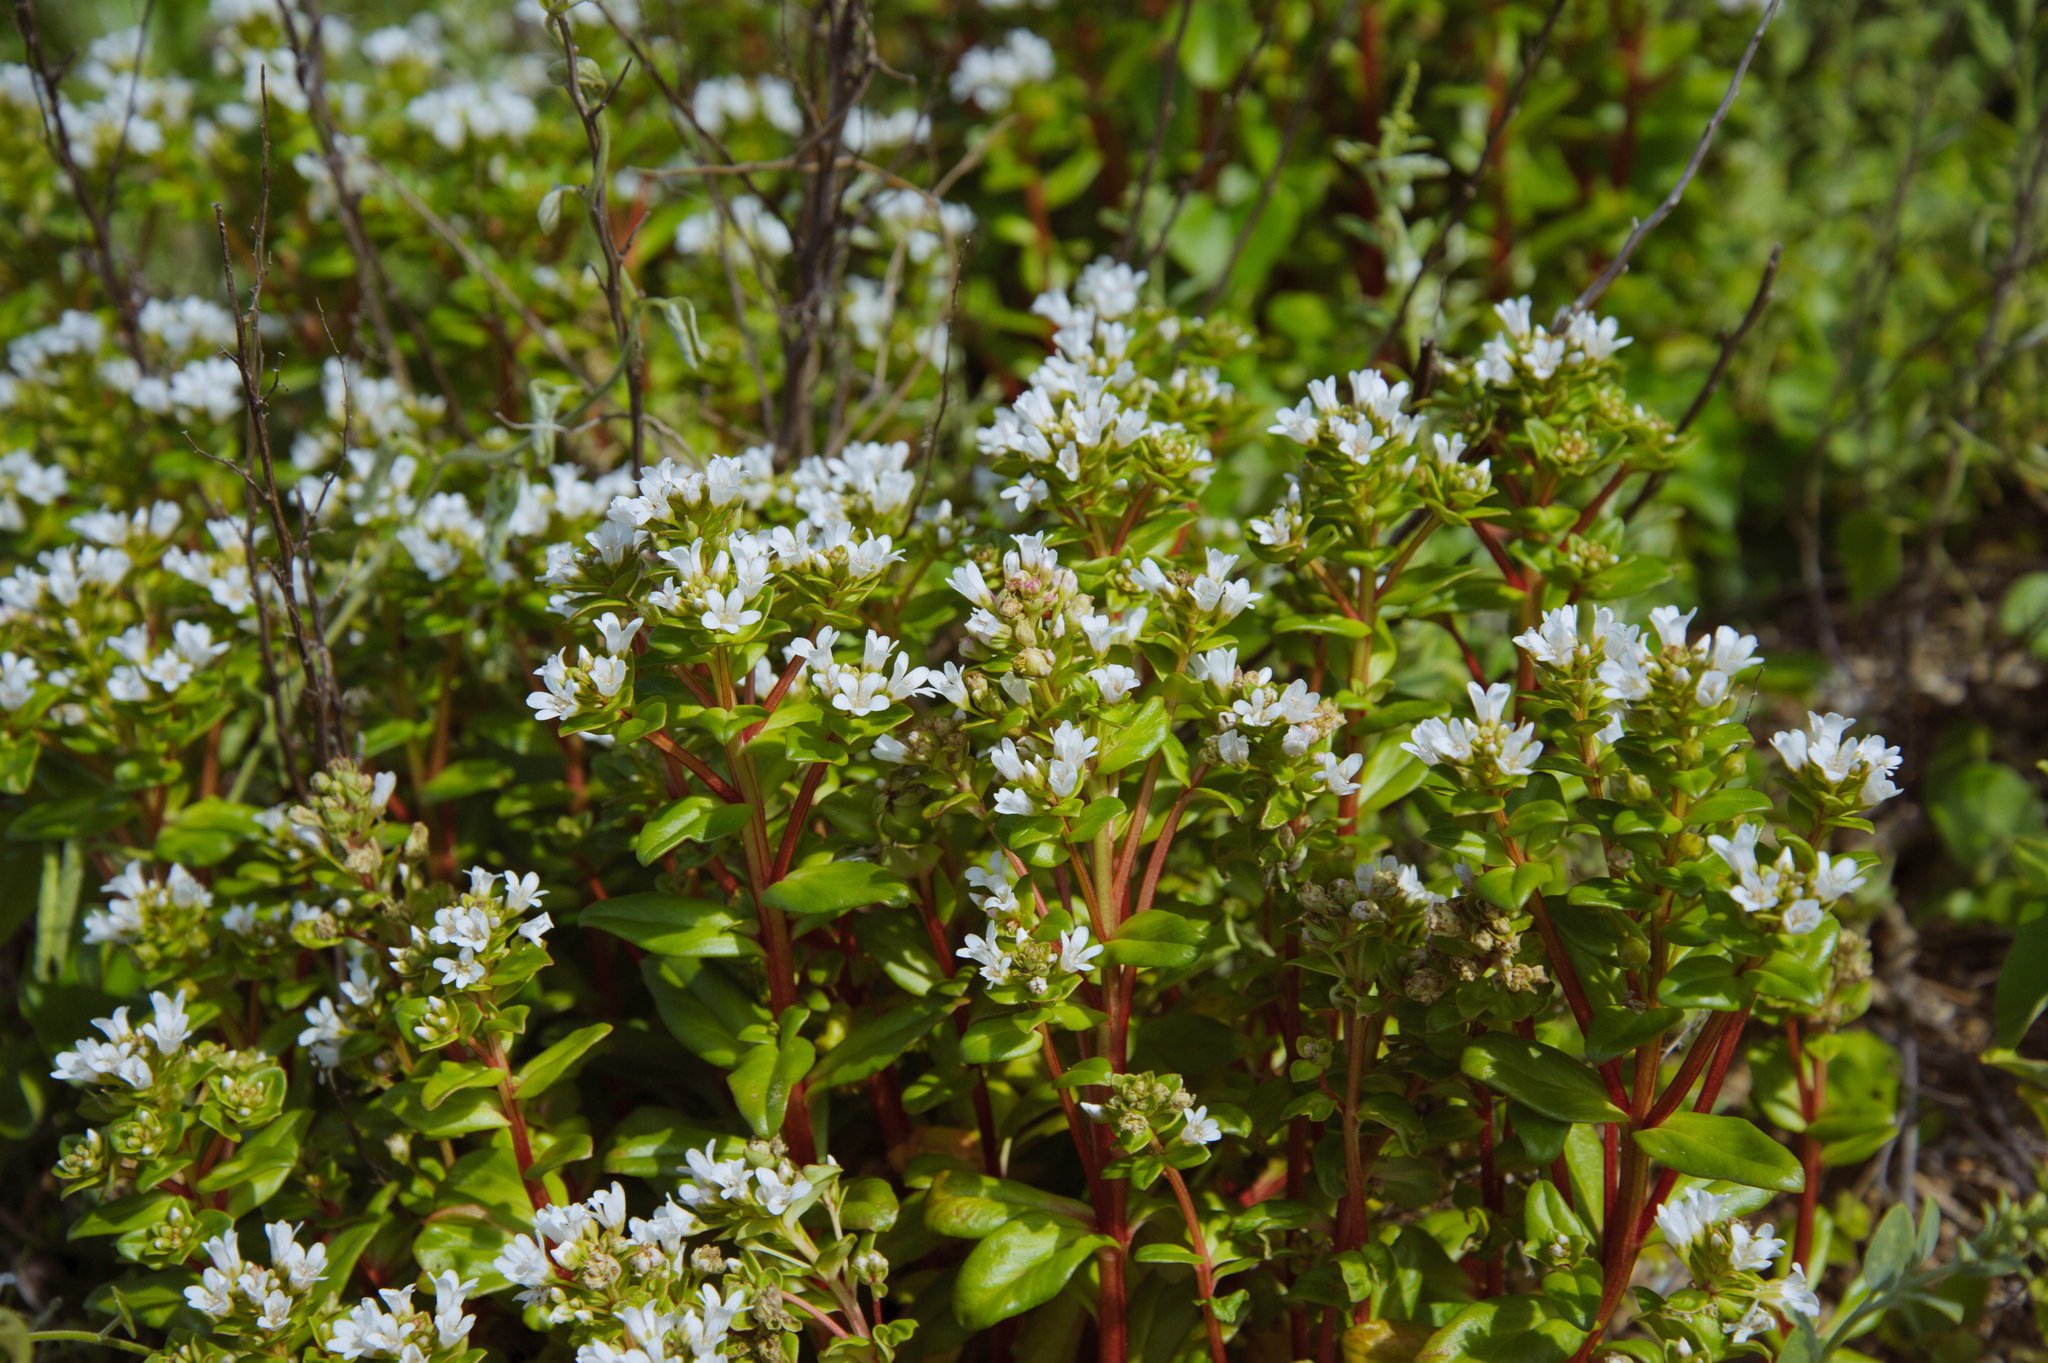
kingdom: Plantae
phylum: Tracheophyta
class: Magnoliopsida
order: Ericales
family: Primulaceae
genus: Lysimachia
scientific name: Lysimachia mauritiana
